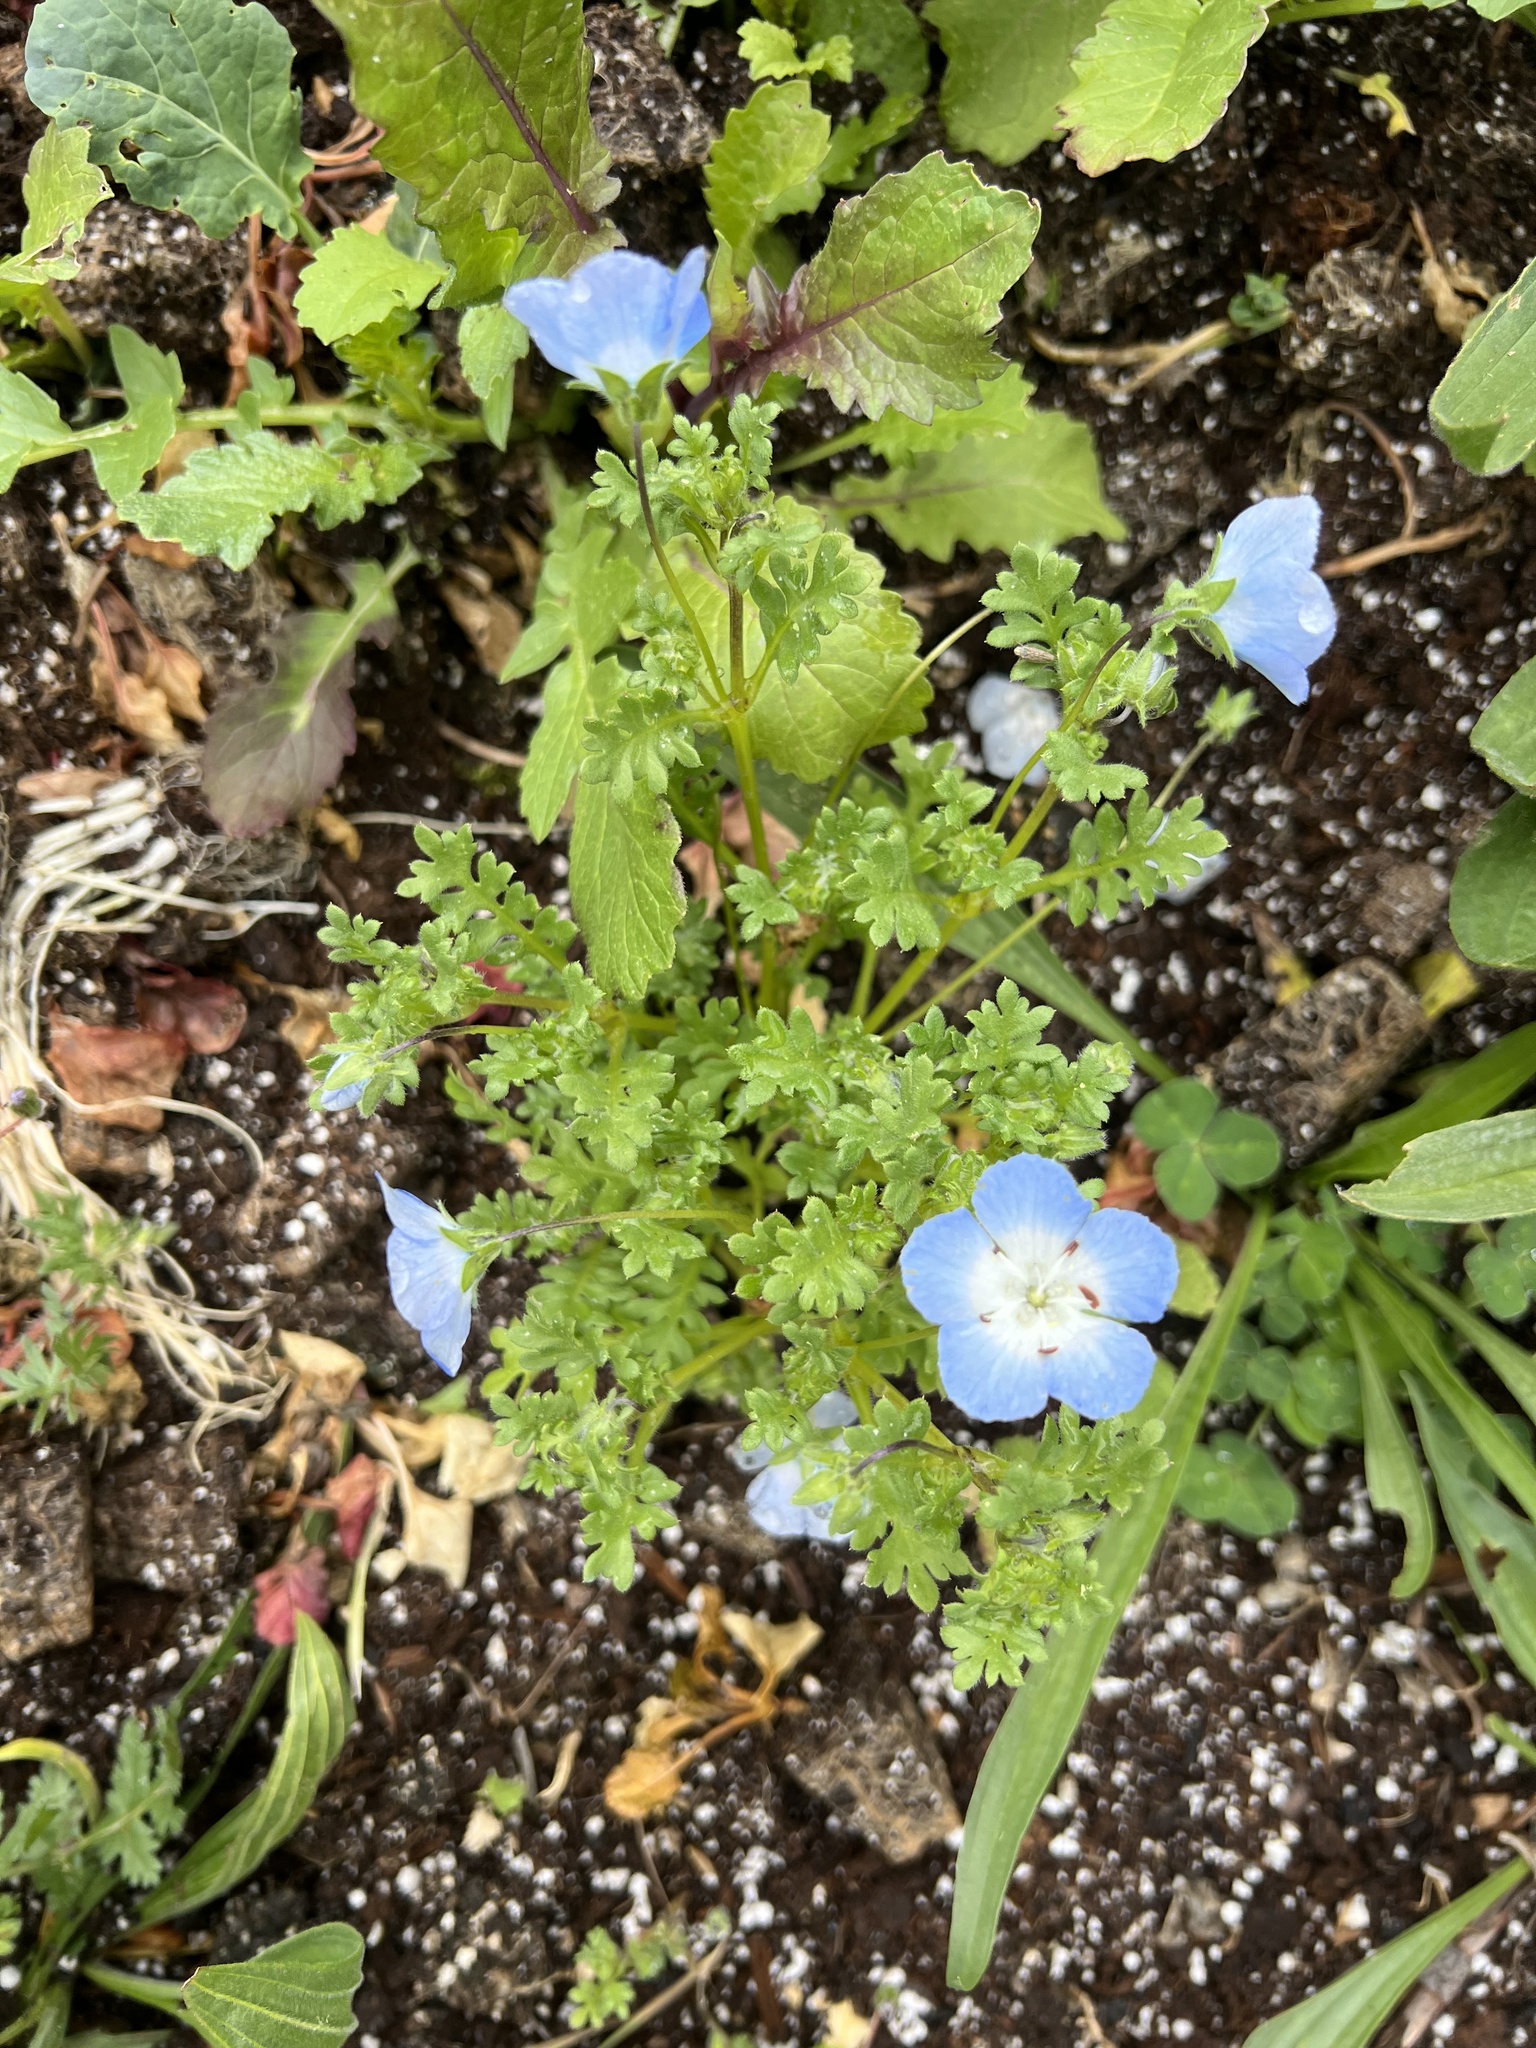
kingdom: Plantae
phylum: Tracheophyta
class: Magnoliopsida
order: Boraginales
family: Hydrophyllaceae
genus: Nemophila
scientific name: Nemophila menziesii
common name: Baby's-blue-eyes
